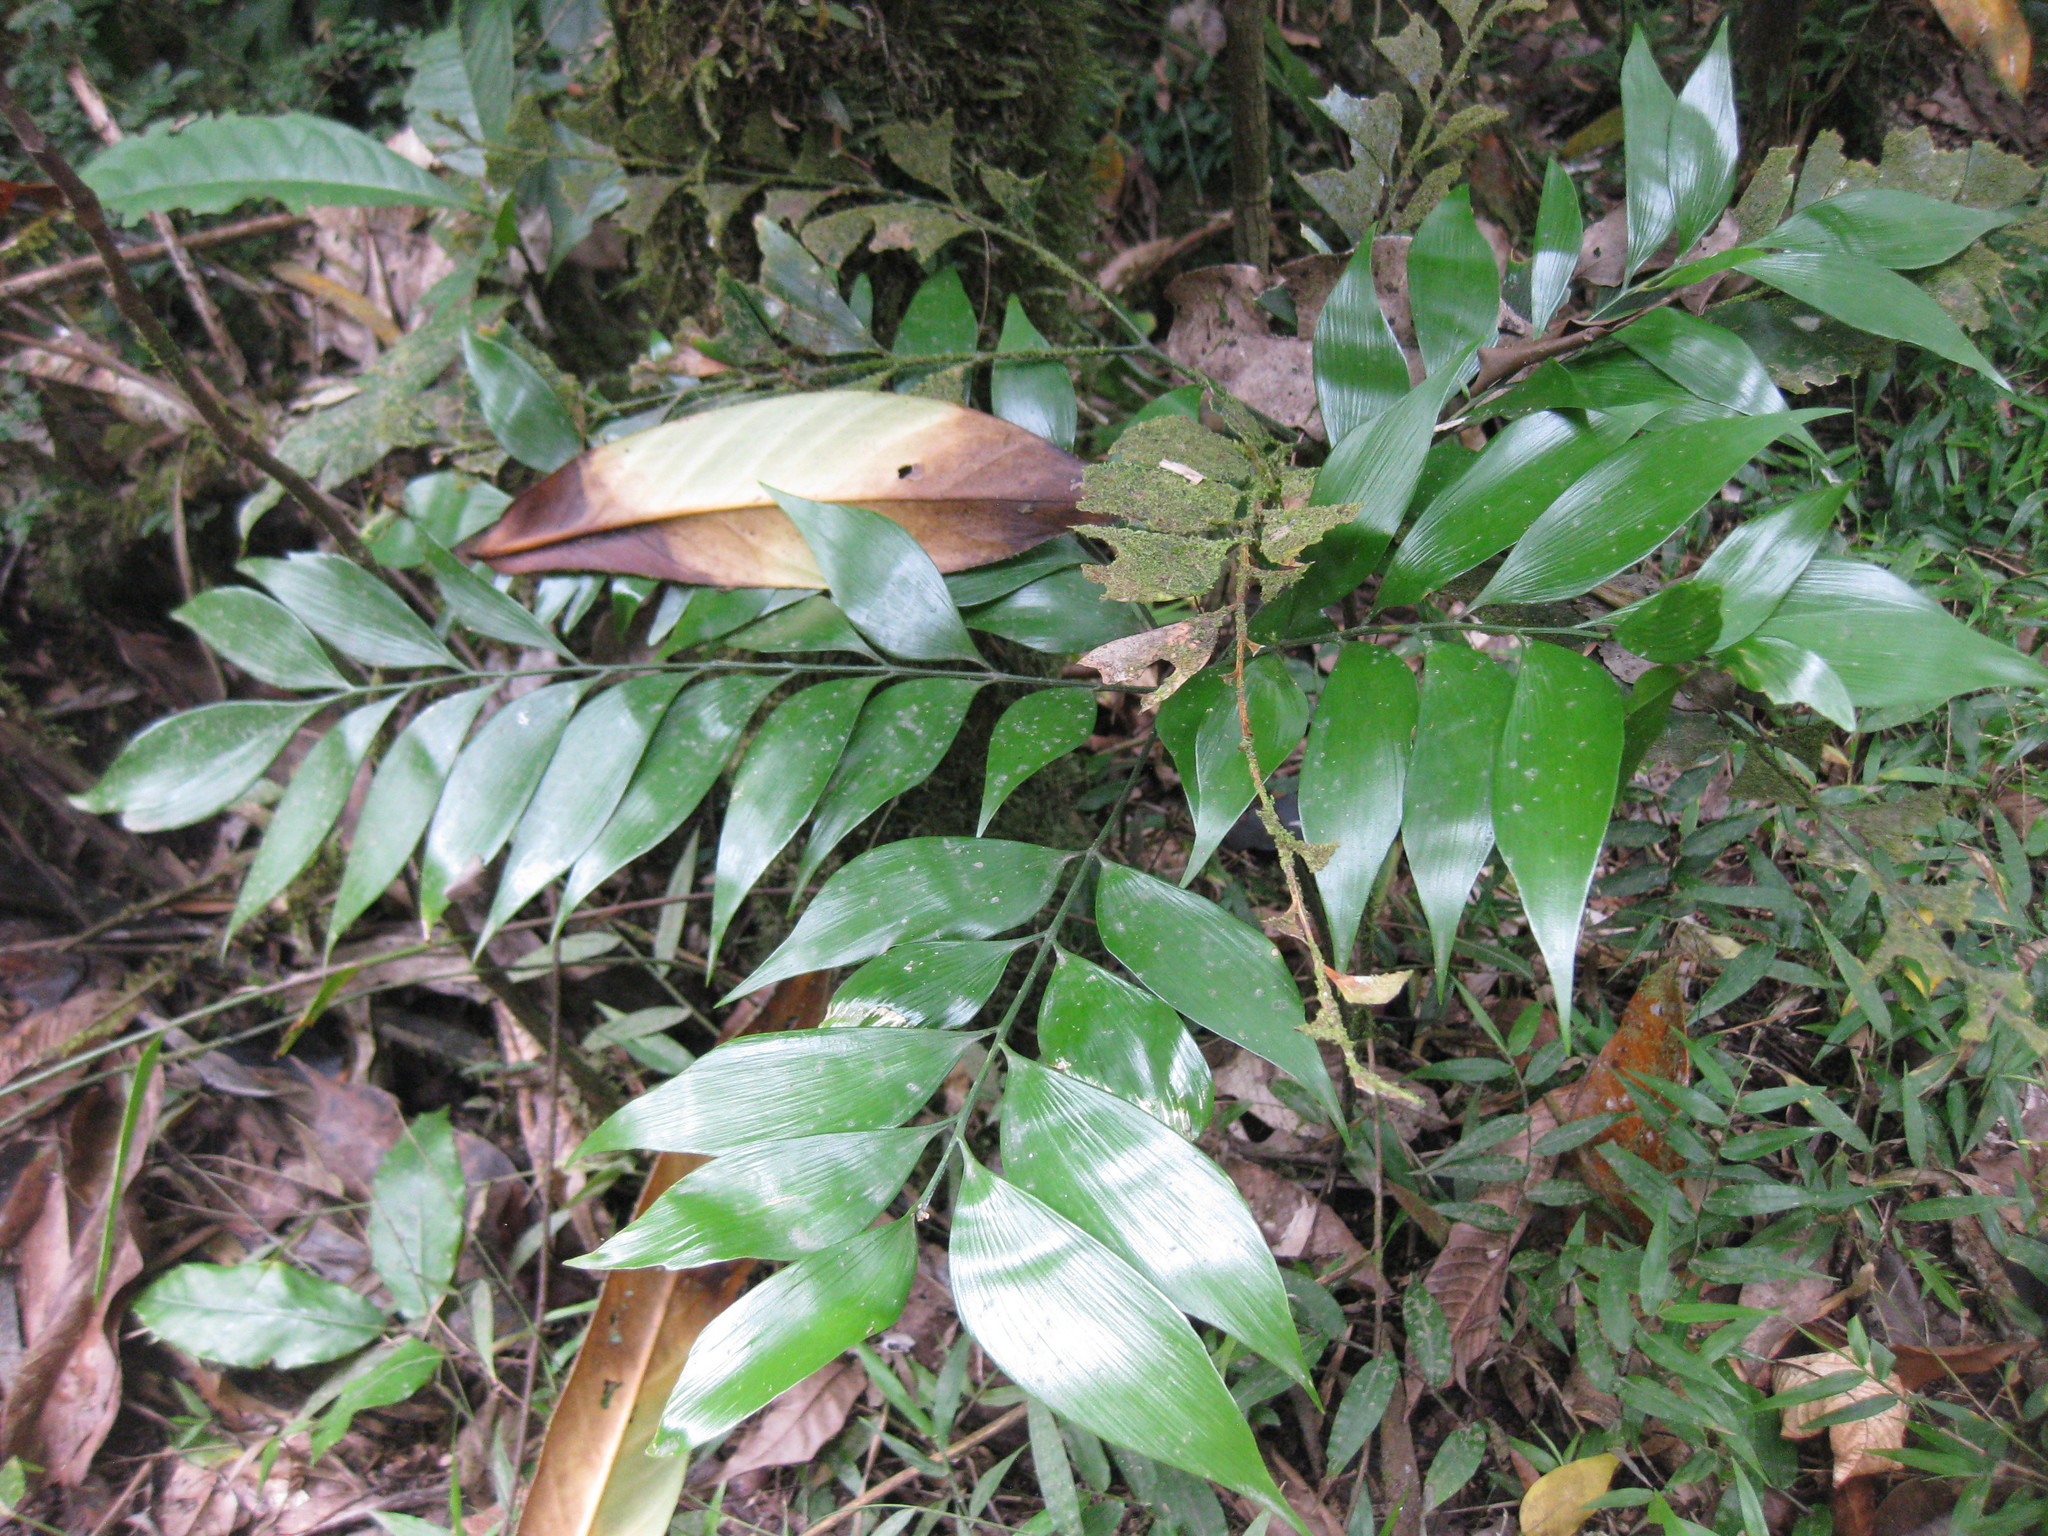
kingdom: Plantae
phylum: Tracheophyta
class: Cycadopsida
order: Cycadales
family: Zamiaceae
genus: Bowenia
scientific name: Bowenia spectabilis
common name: Zamia-fern
